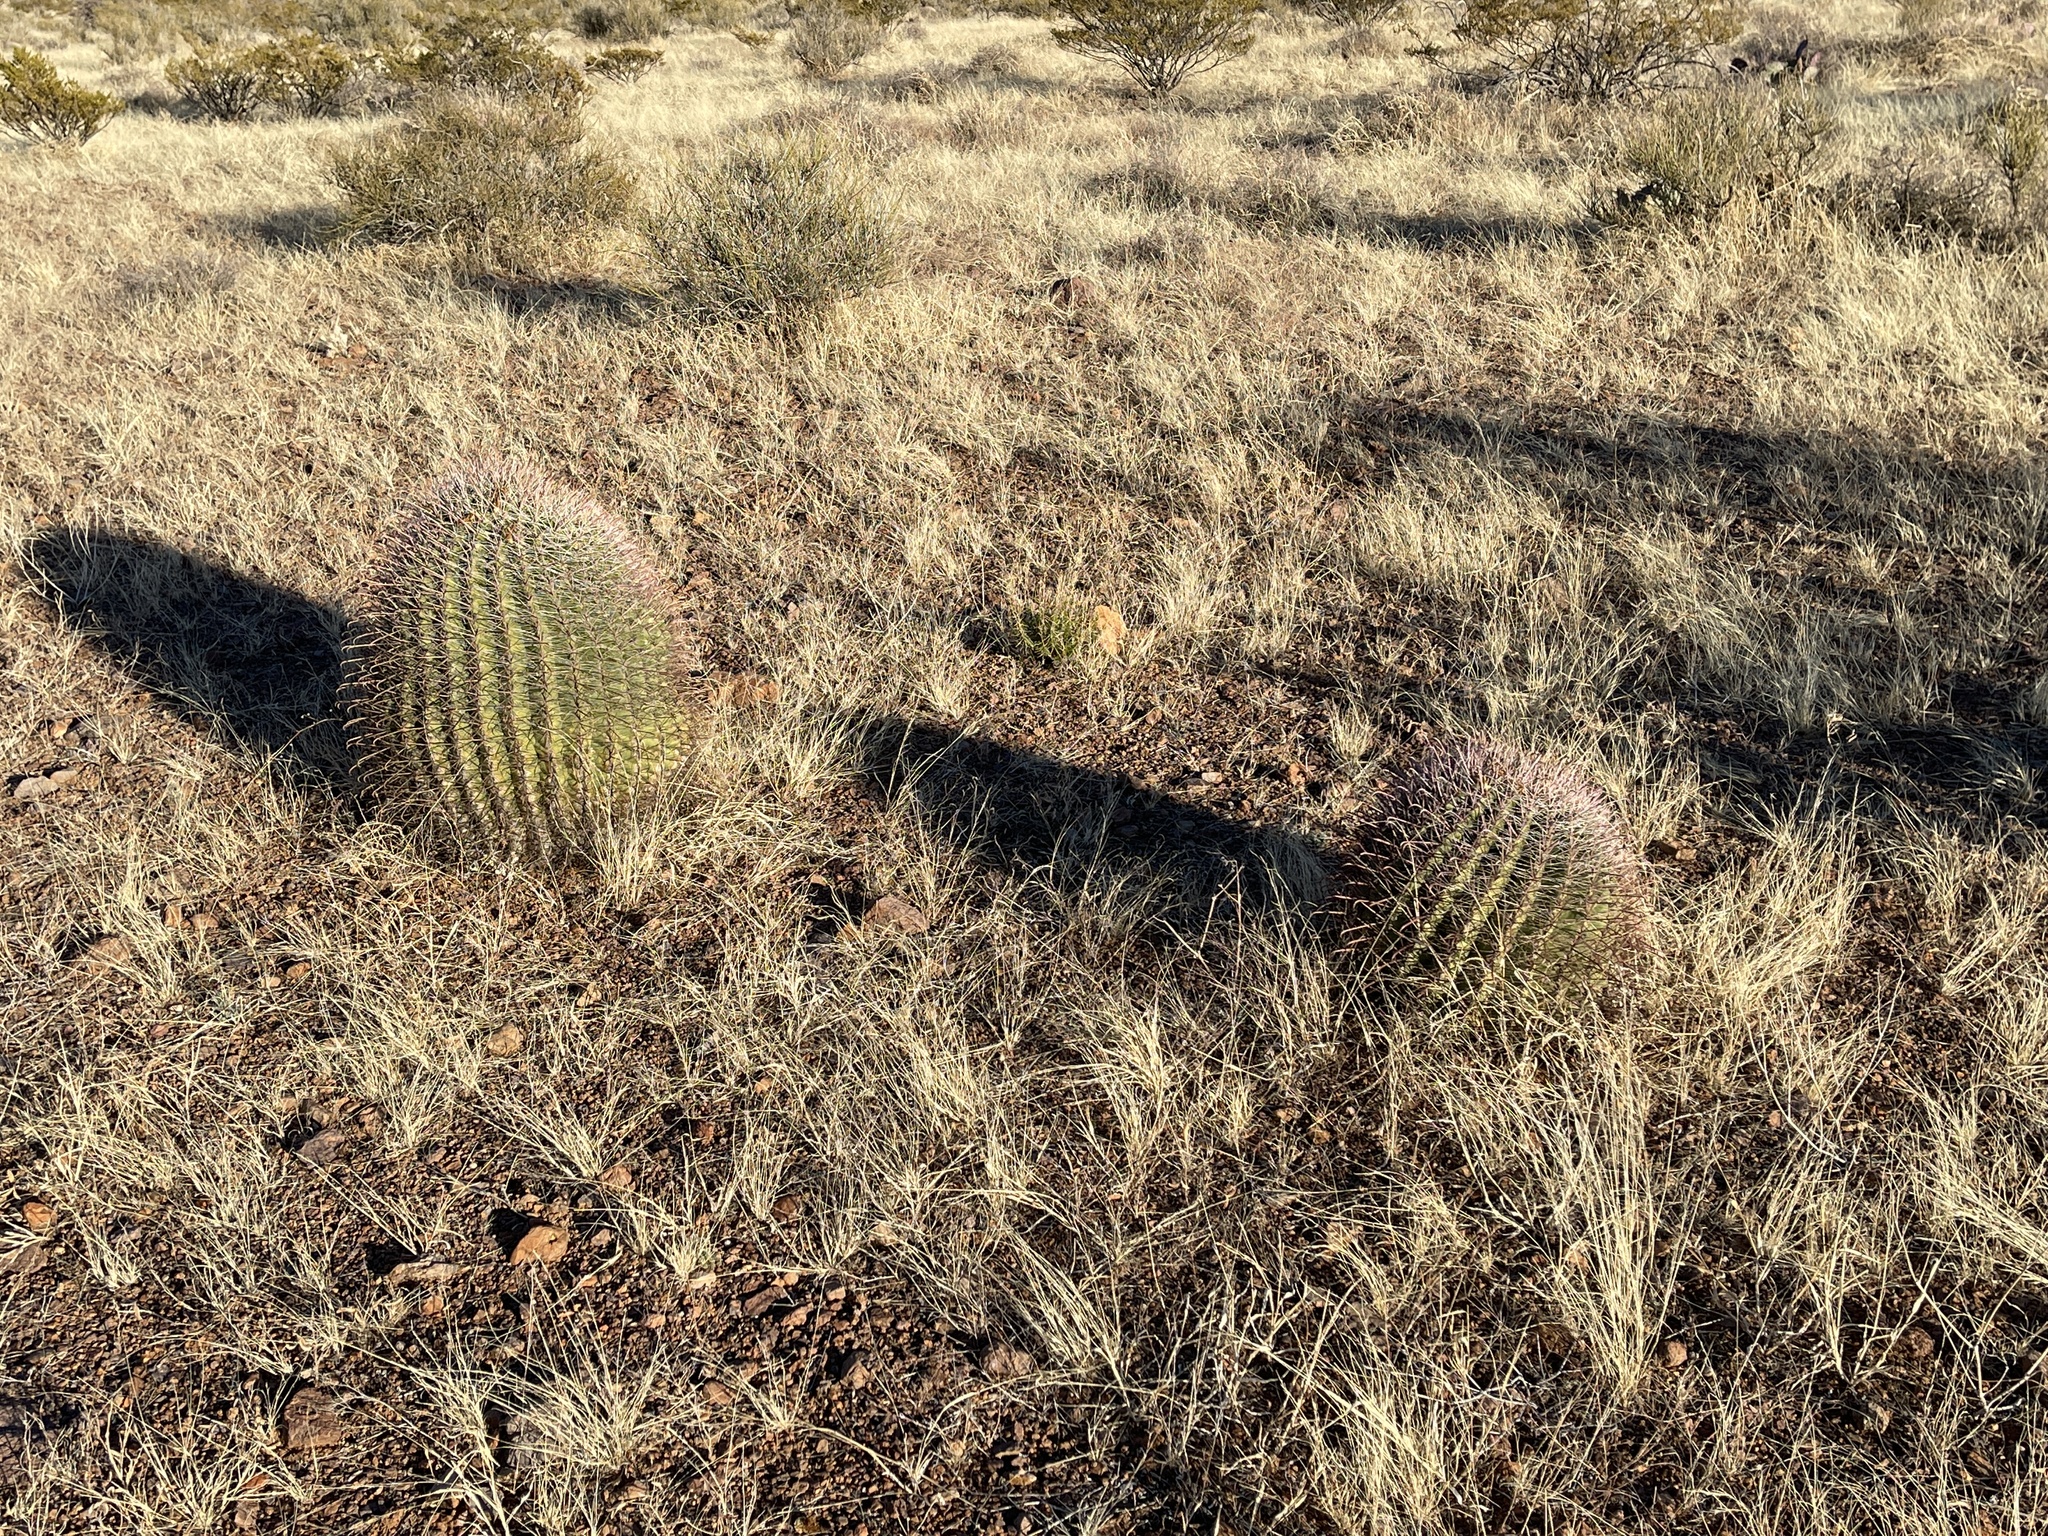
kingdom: Plantae
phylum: Tracheophyta
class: Magnoliopsida
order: Caryophyllales
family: Cactaceae
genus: Ferocactus
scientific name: Ferocactus wislizeni
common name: Candy barrel cactus
